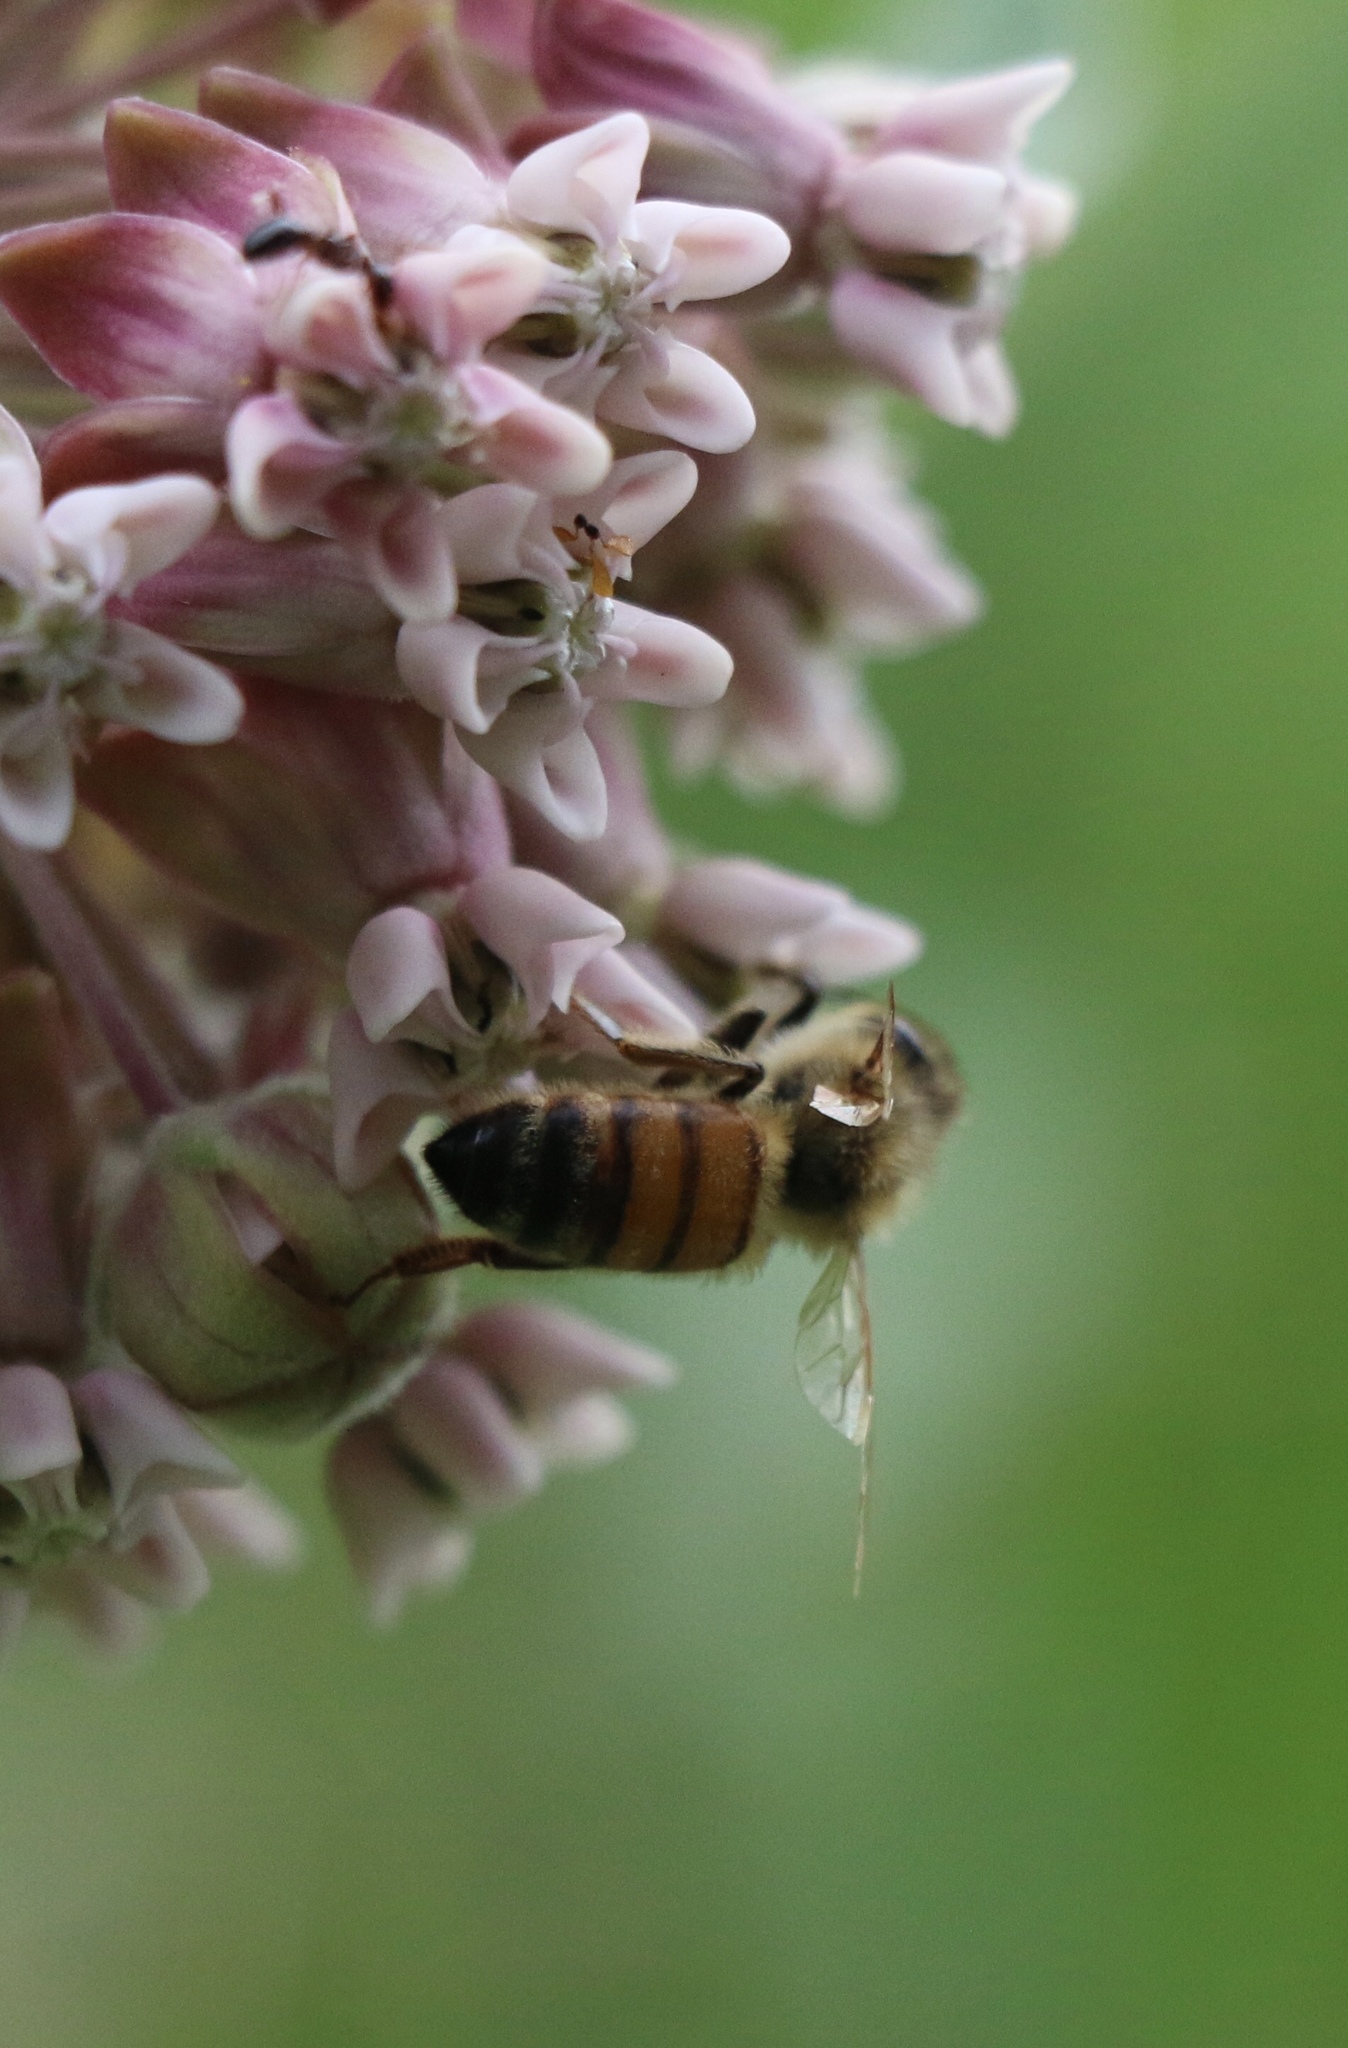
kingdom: Animalia
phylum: Arthropoda
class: Insecta
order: Hymenoptera
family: Apidae
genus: Apis
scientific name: Apis mellifera
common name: Honey bee
